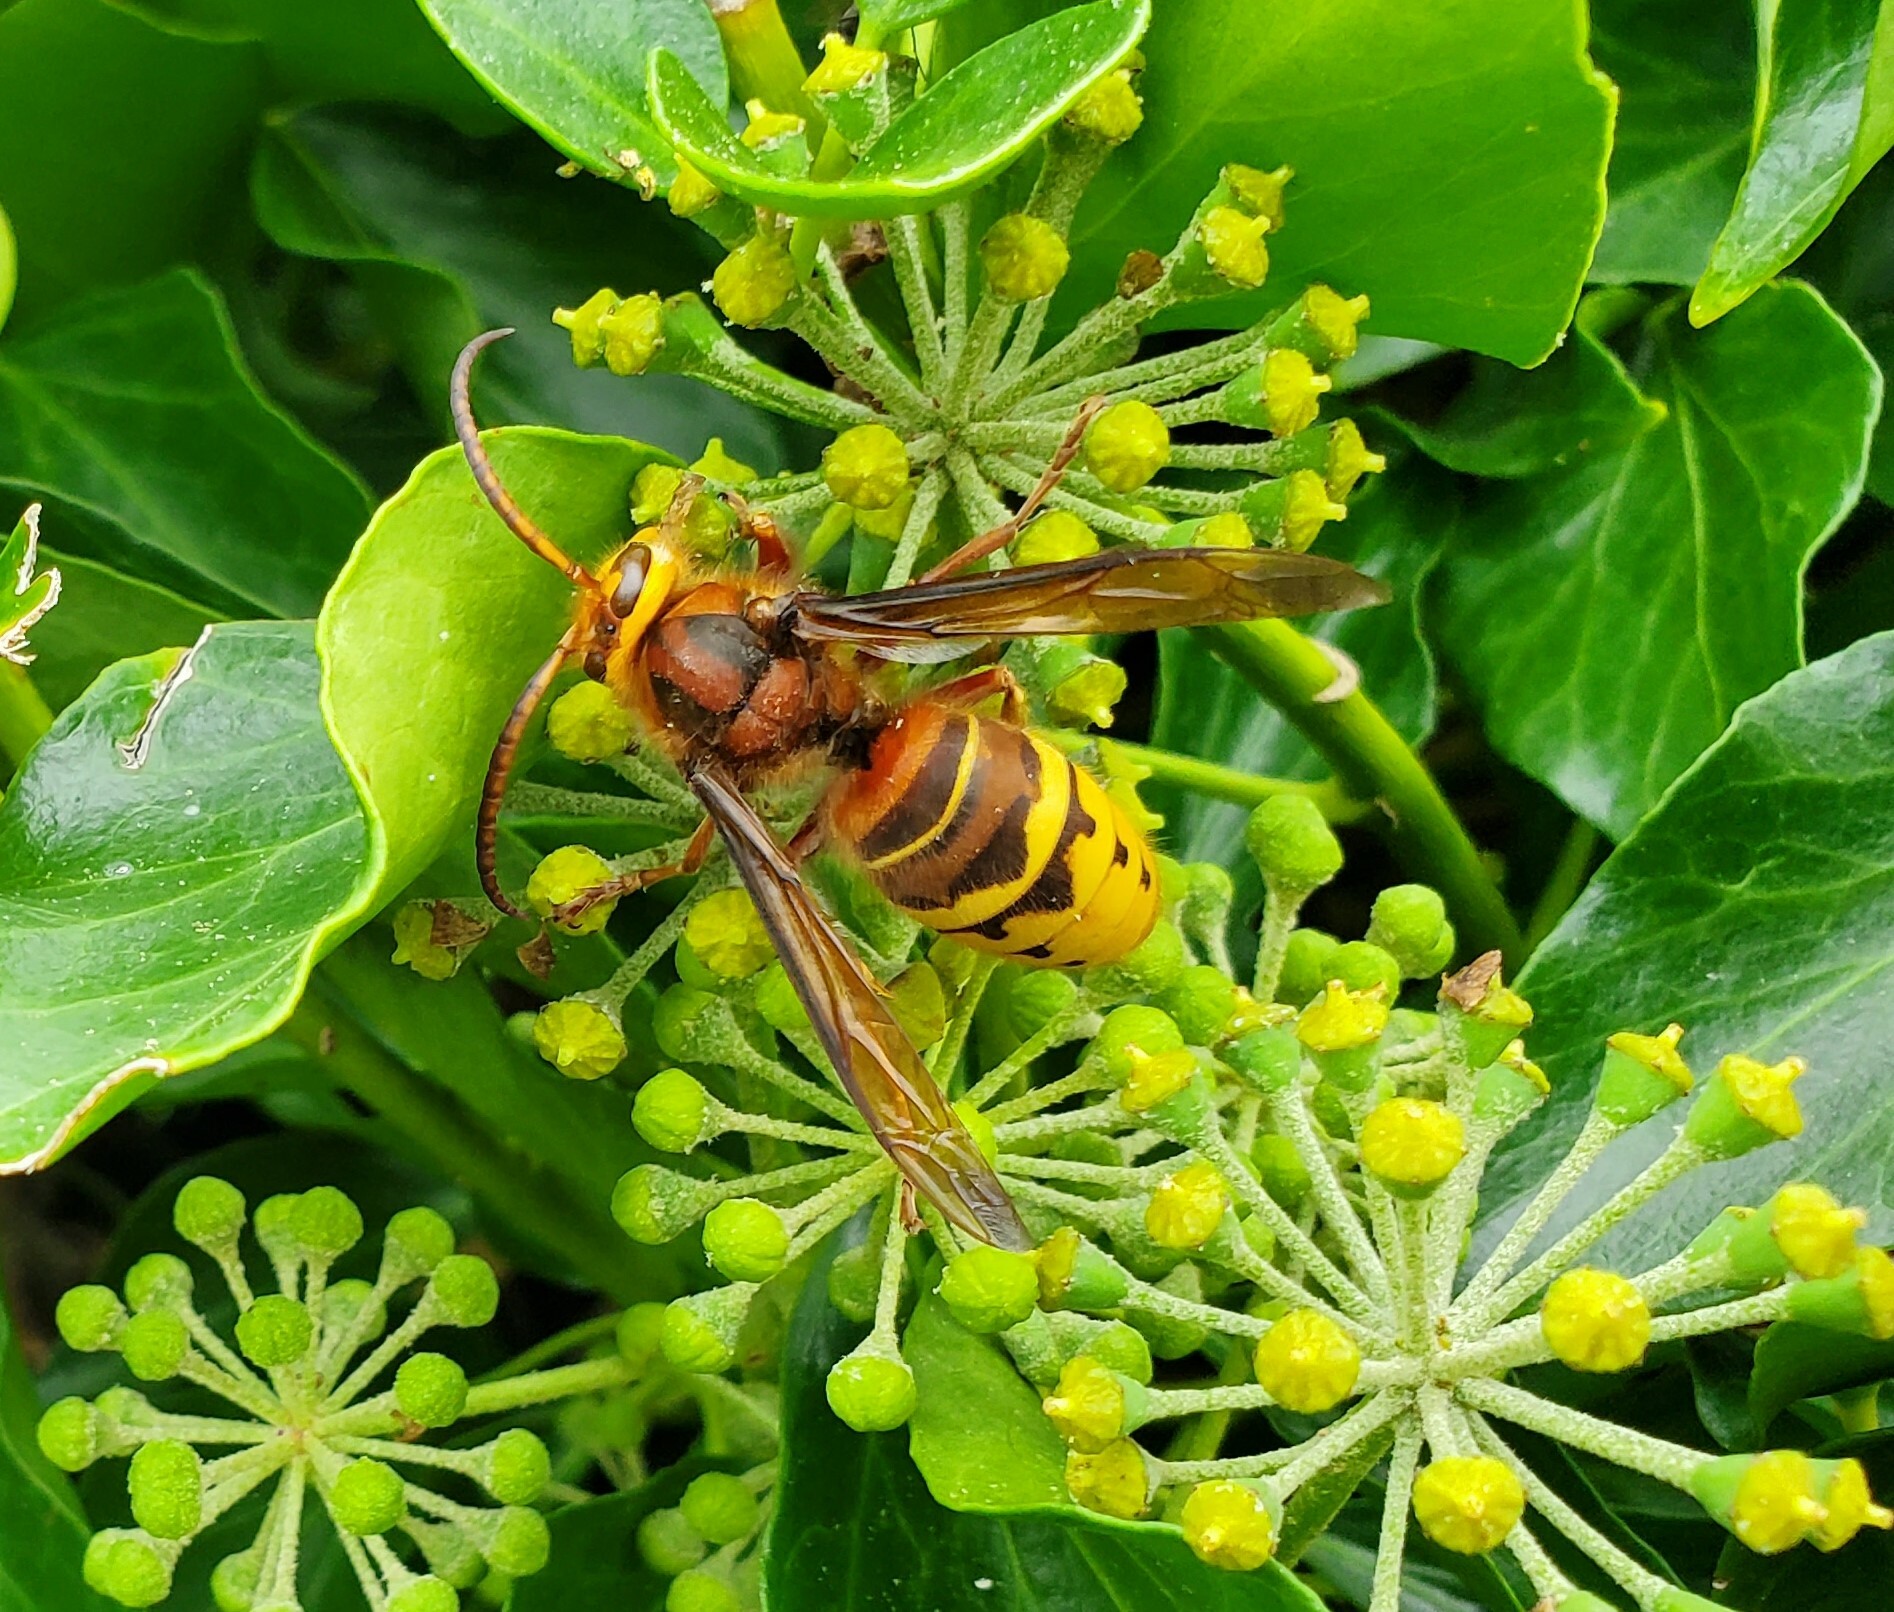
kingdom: Animalia
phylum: Arthropoda
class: Insecta
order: Hymenoptera
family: Vespidae
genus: Vespa
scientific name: Vespa crabro
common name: Hornet
